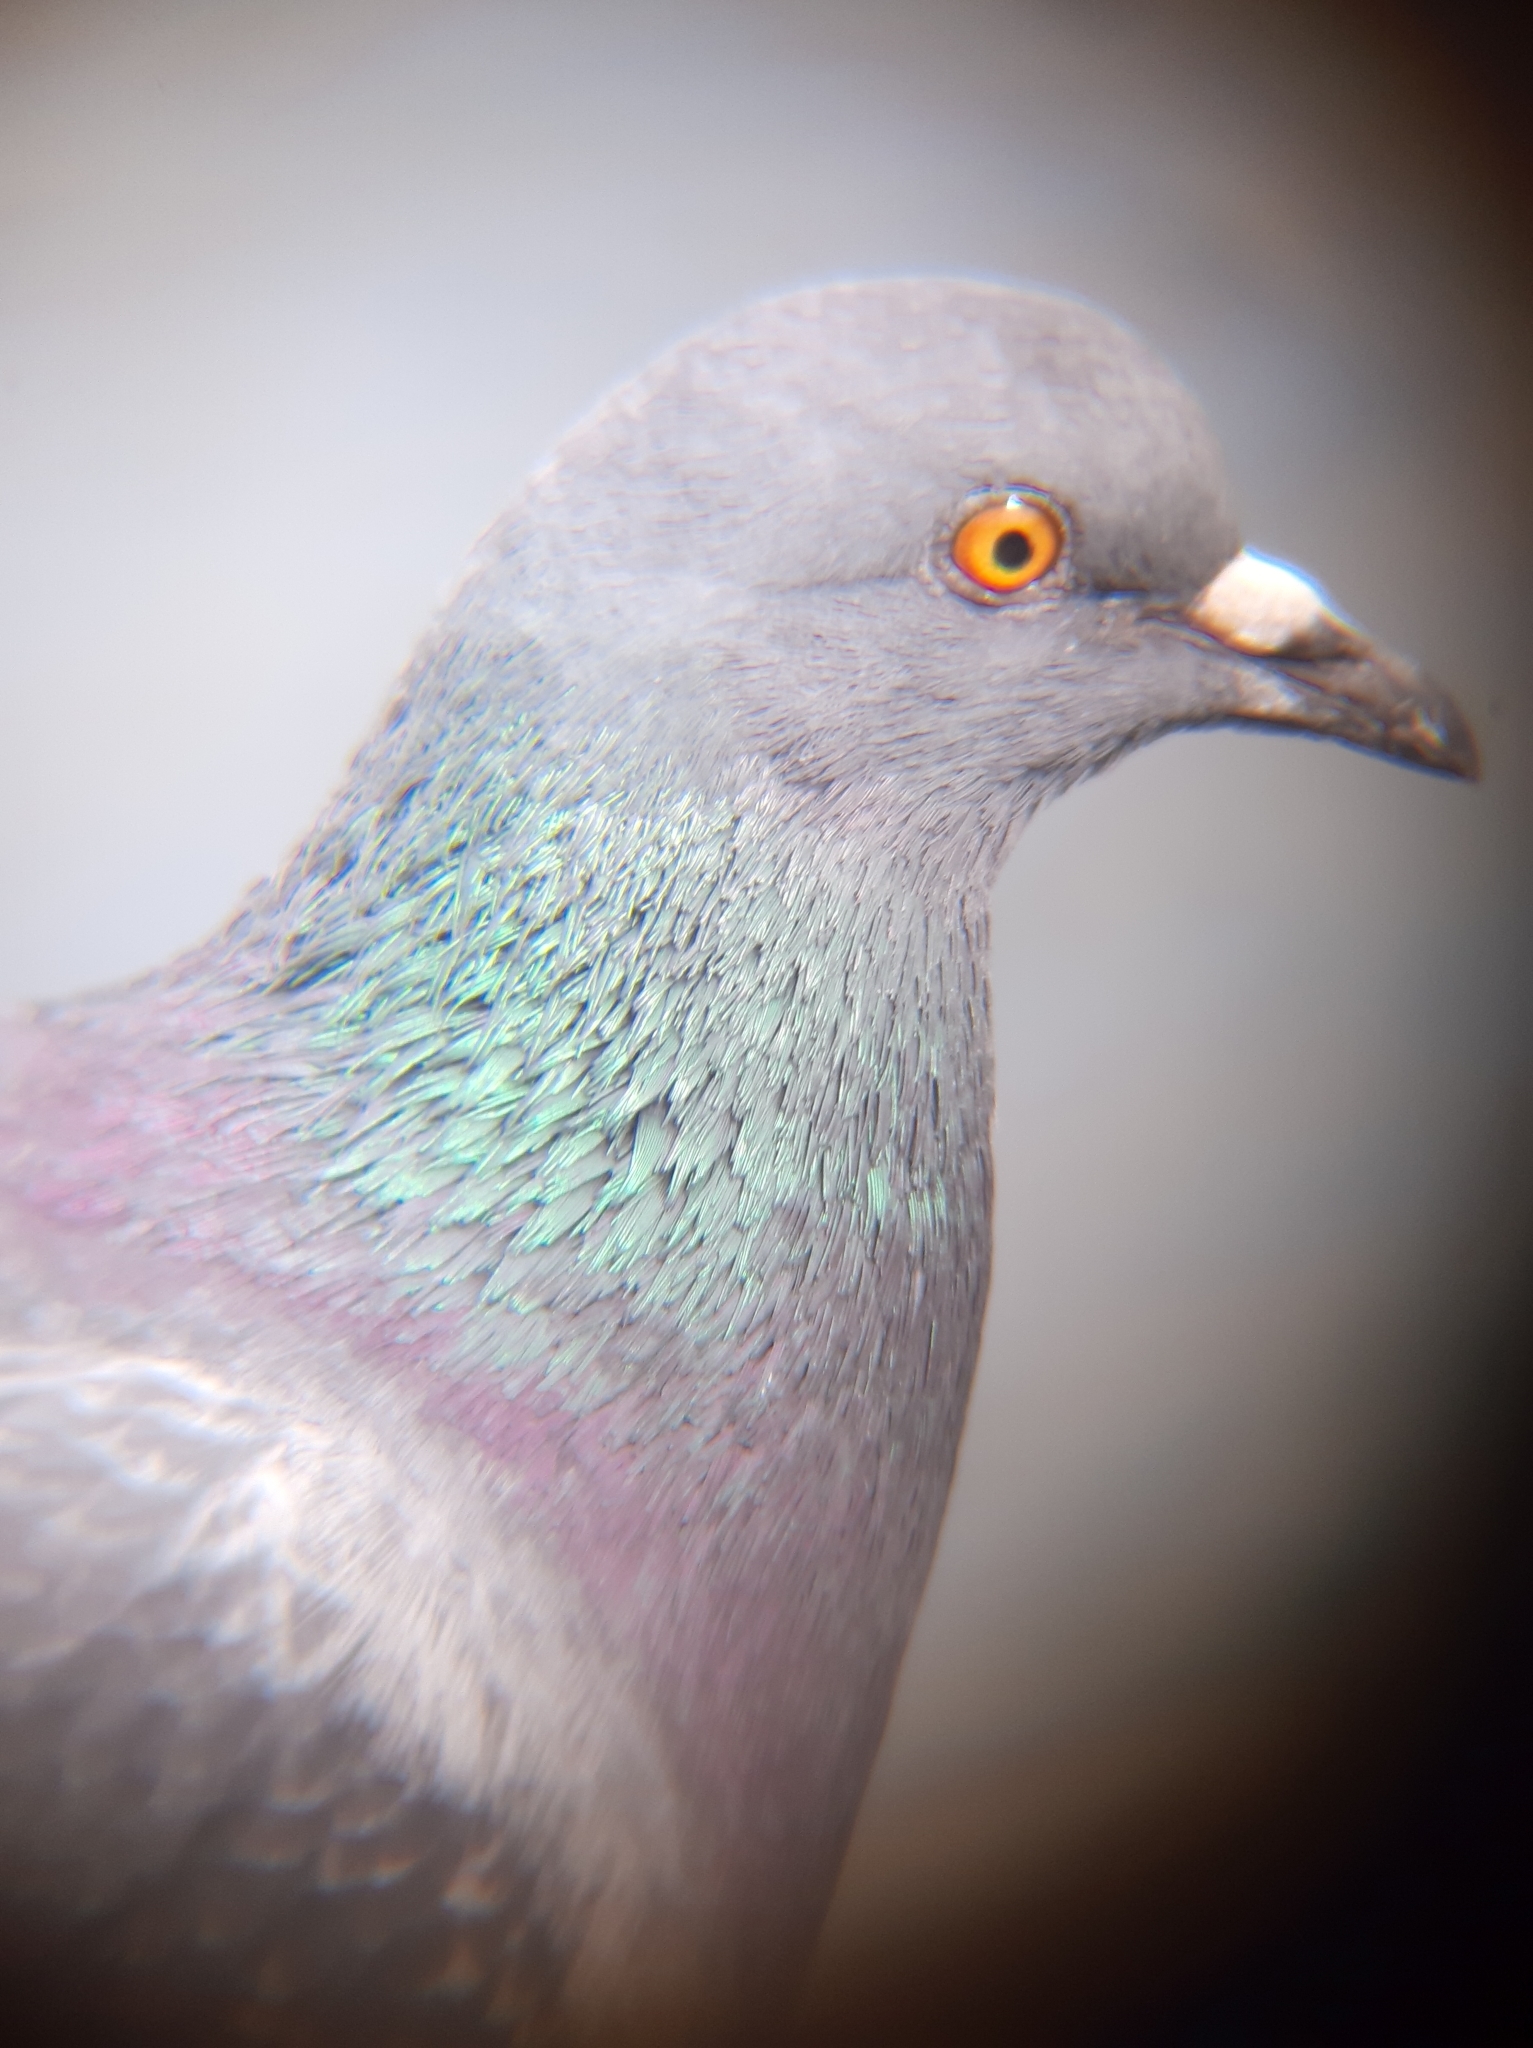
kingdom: Animalia
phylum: Chordata
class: Aves
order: Columbiformes
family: Columbidae
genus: Columba
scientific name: Columba livia
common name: Rock pigeon
